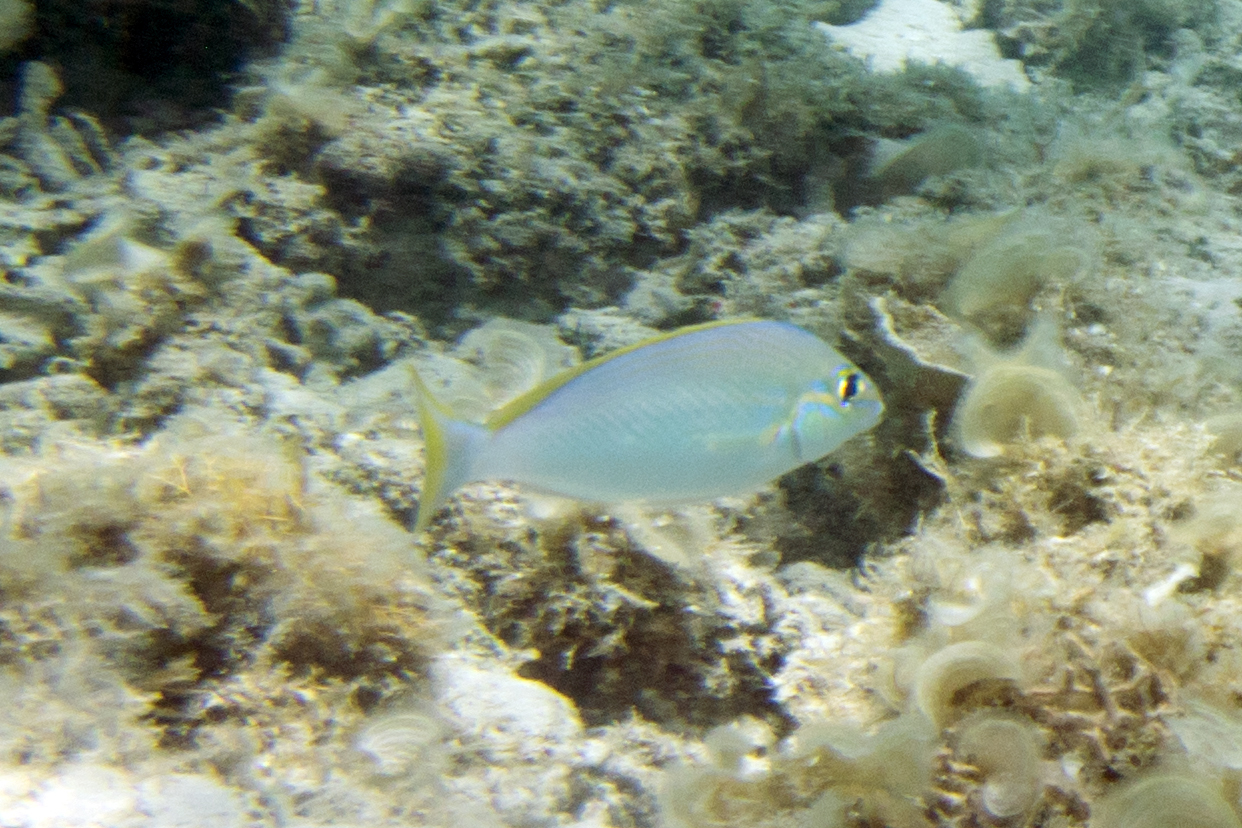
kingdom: Animalia
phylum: Chordata
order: Perciformes
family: Nemipteridae
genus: Scolopsis
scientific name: Scolopsis monogramma
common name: Monogrammed monocle bream
